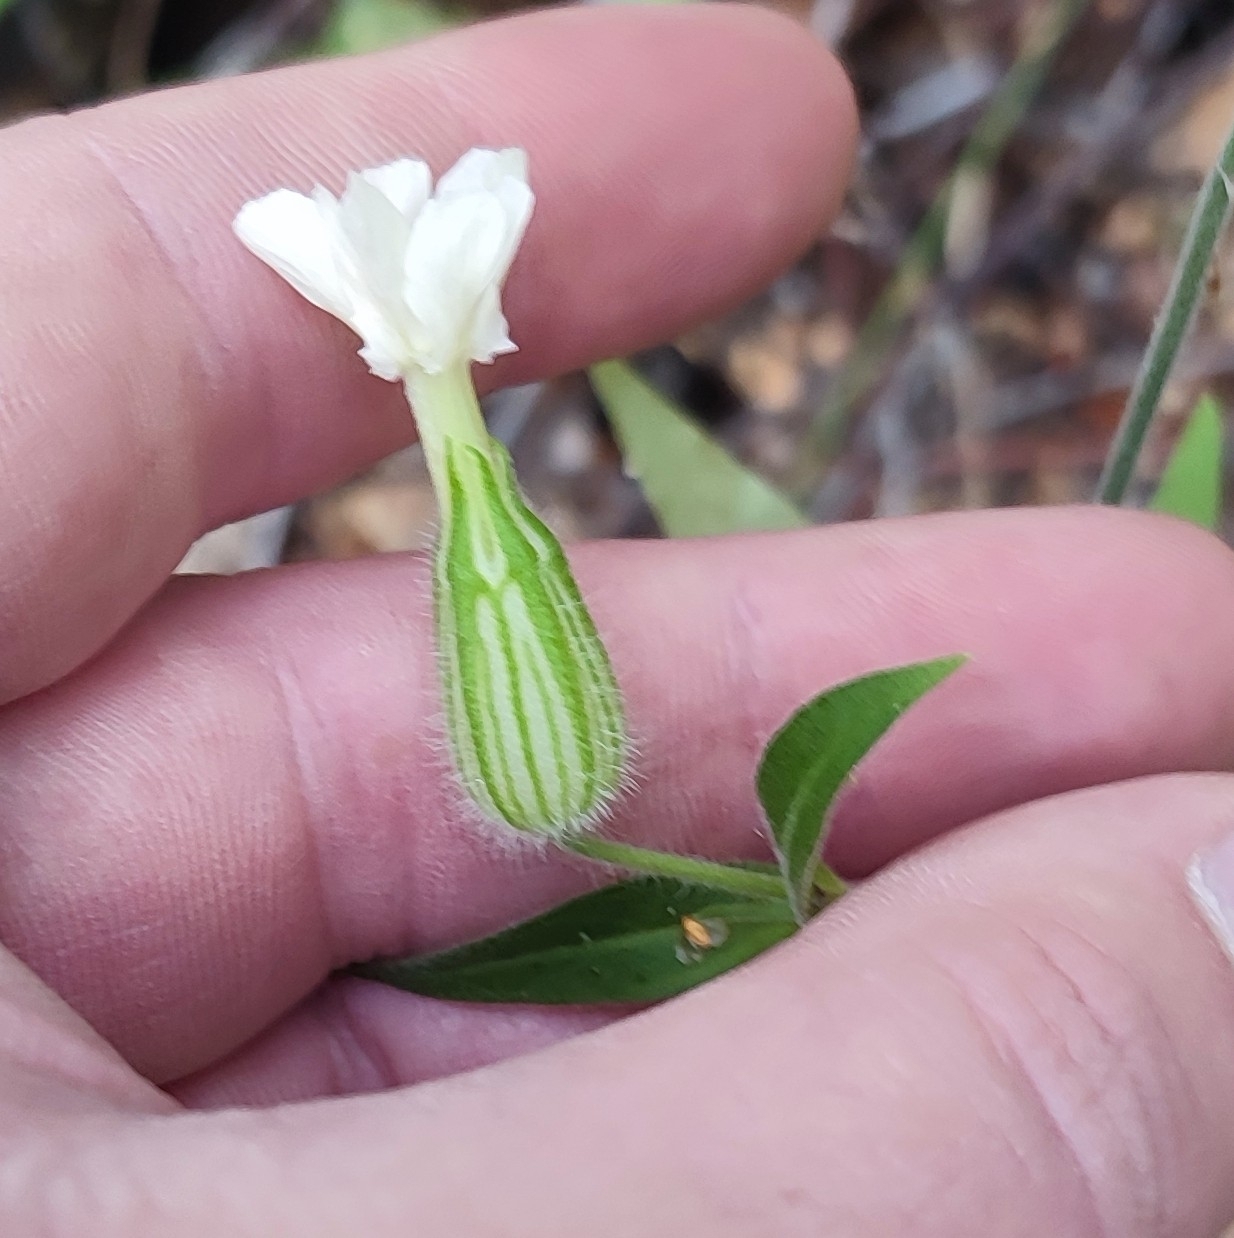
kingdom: Plantae
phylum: Tracheophyta
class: Magnoliopsida
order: Caryophyllales
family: Caryophyllaceae
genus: Silene
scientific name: Silene latifolia
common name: White campion
